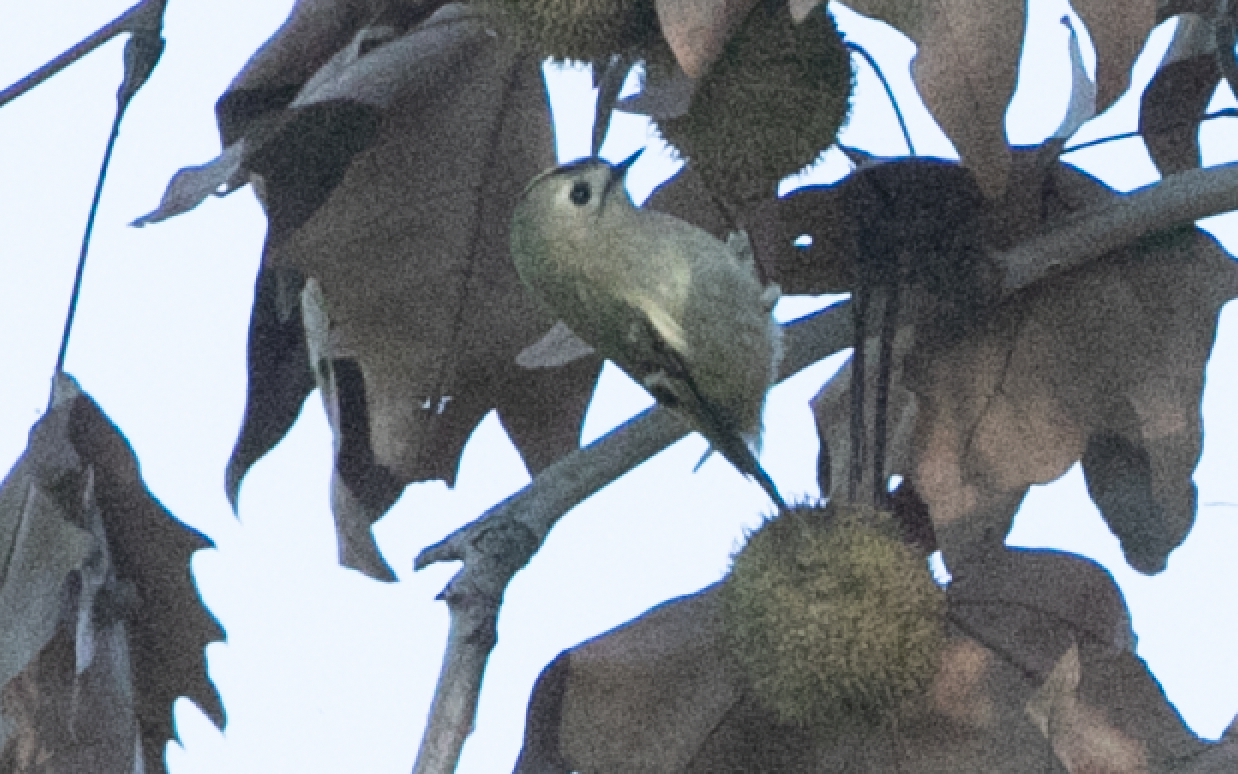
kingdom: Animalia
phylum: Chordata
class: Aves
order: Passeriformes
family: Regulidae
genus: Regulus
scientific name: Regulus regulus
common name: Goldcrest
